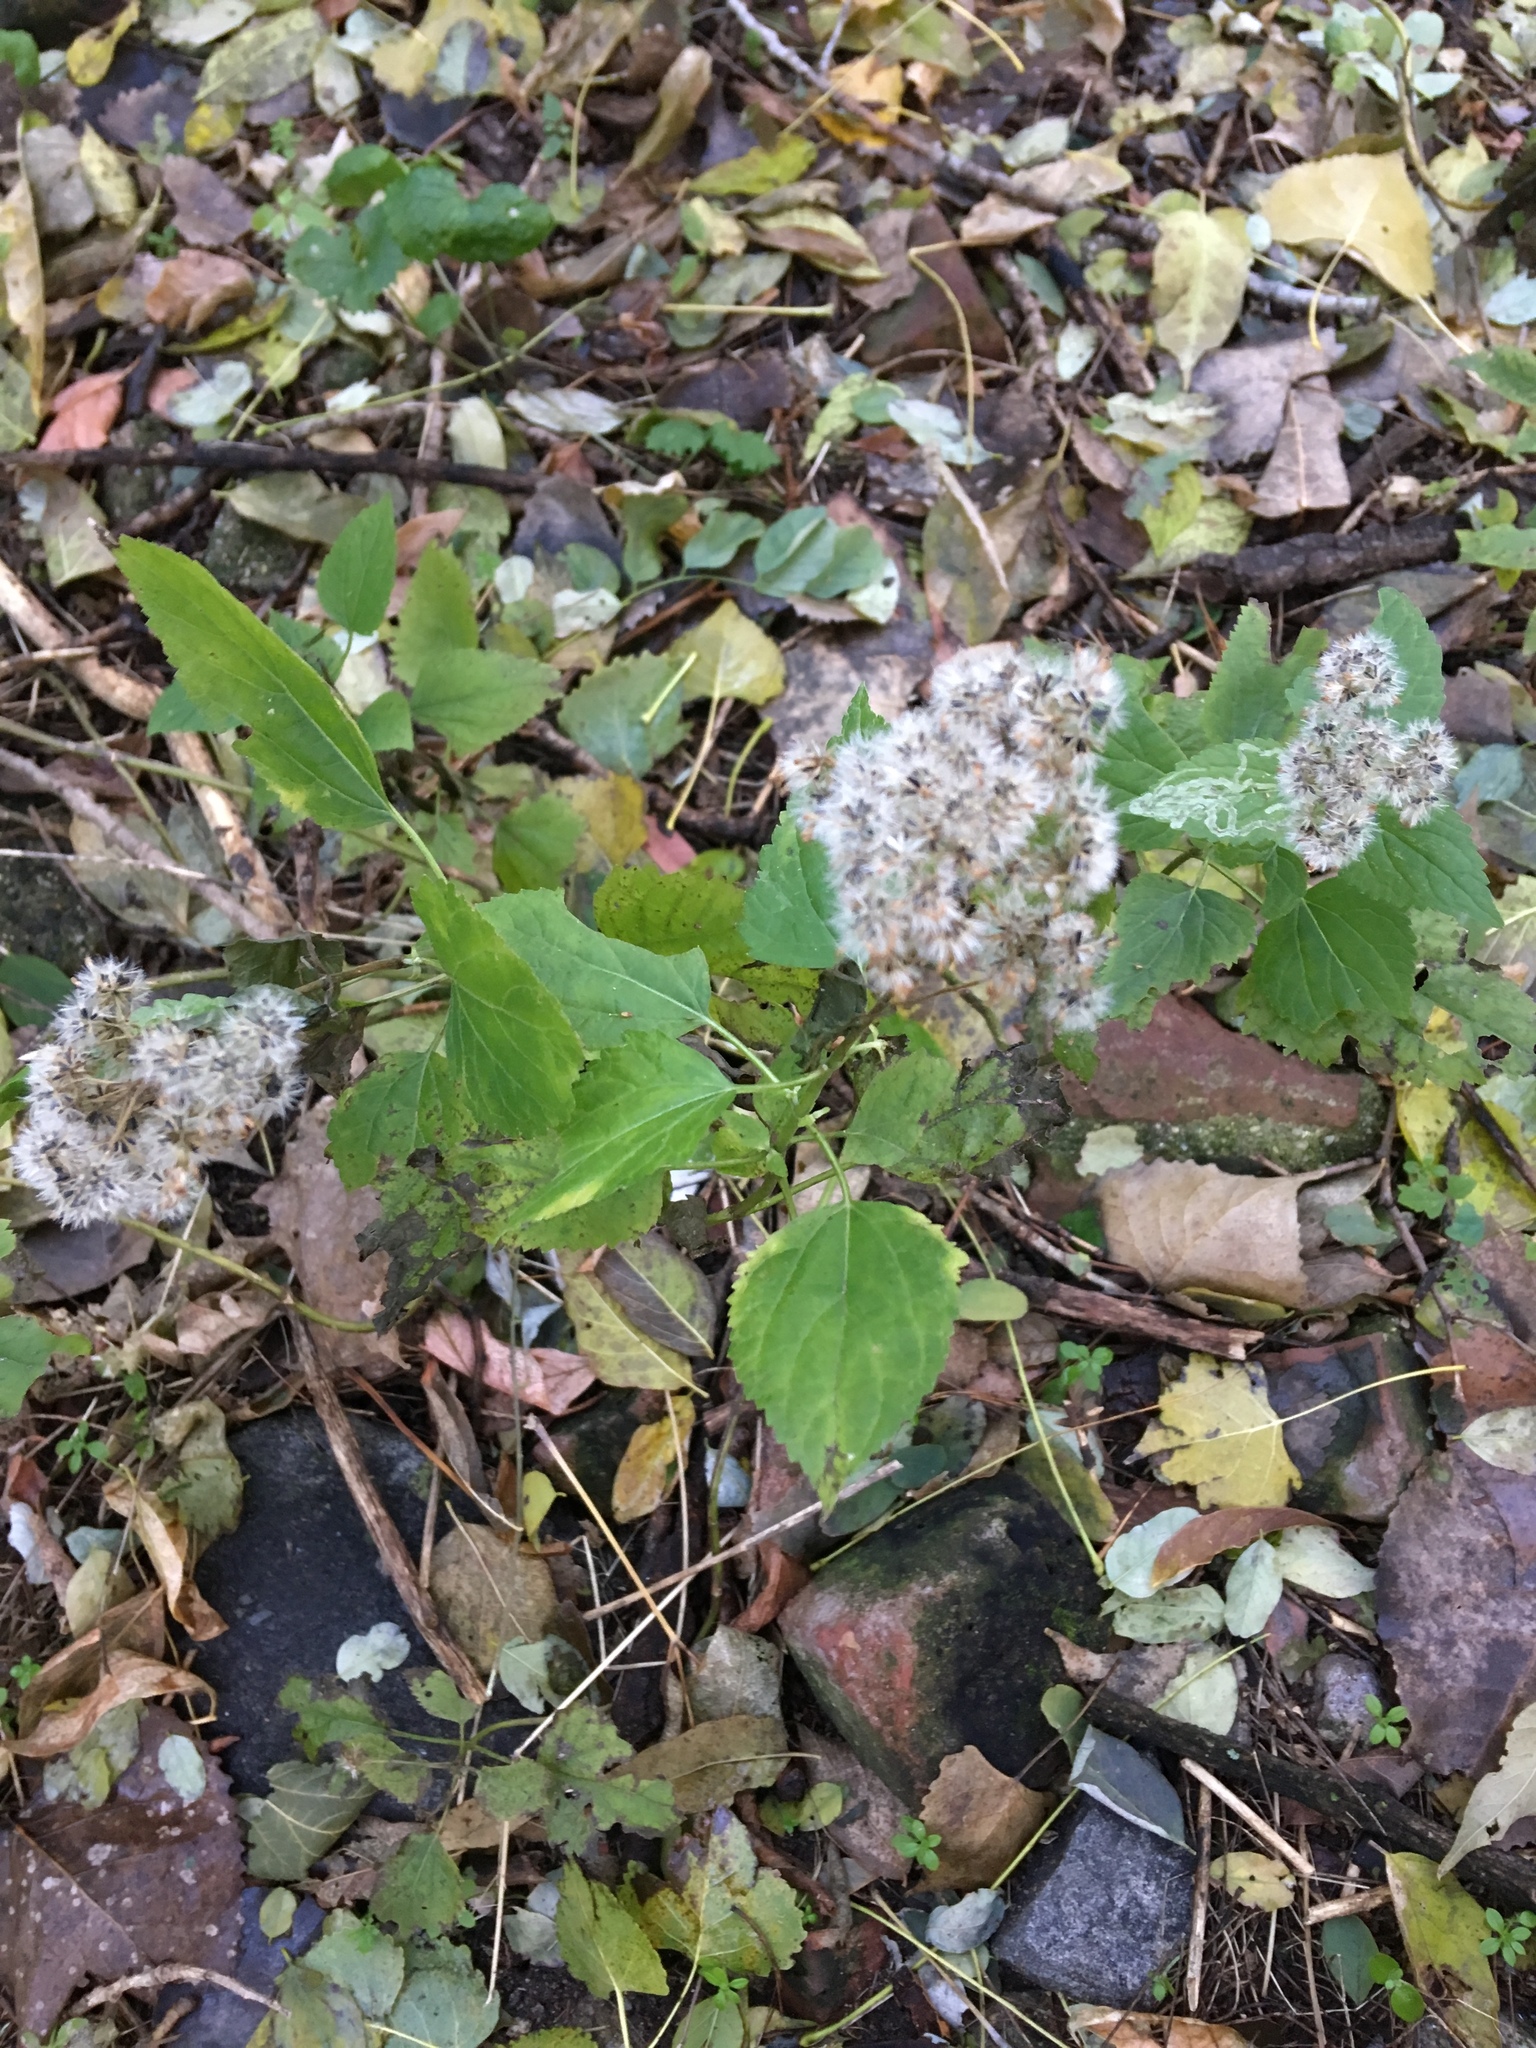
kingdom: Plantae
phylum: Tracheophyta
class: Magnoliopsida
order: Asterales
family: Asteraceae
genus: Ageratina
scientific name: Ageratina altissima
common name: White snakeroot
